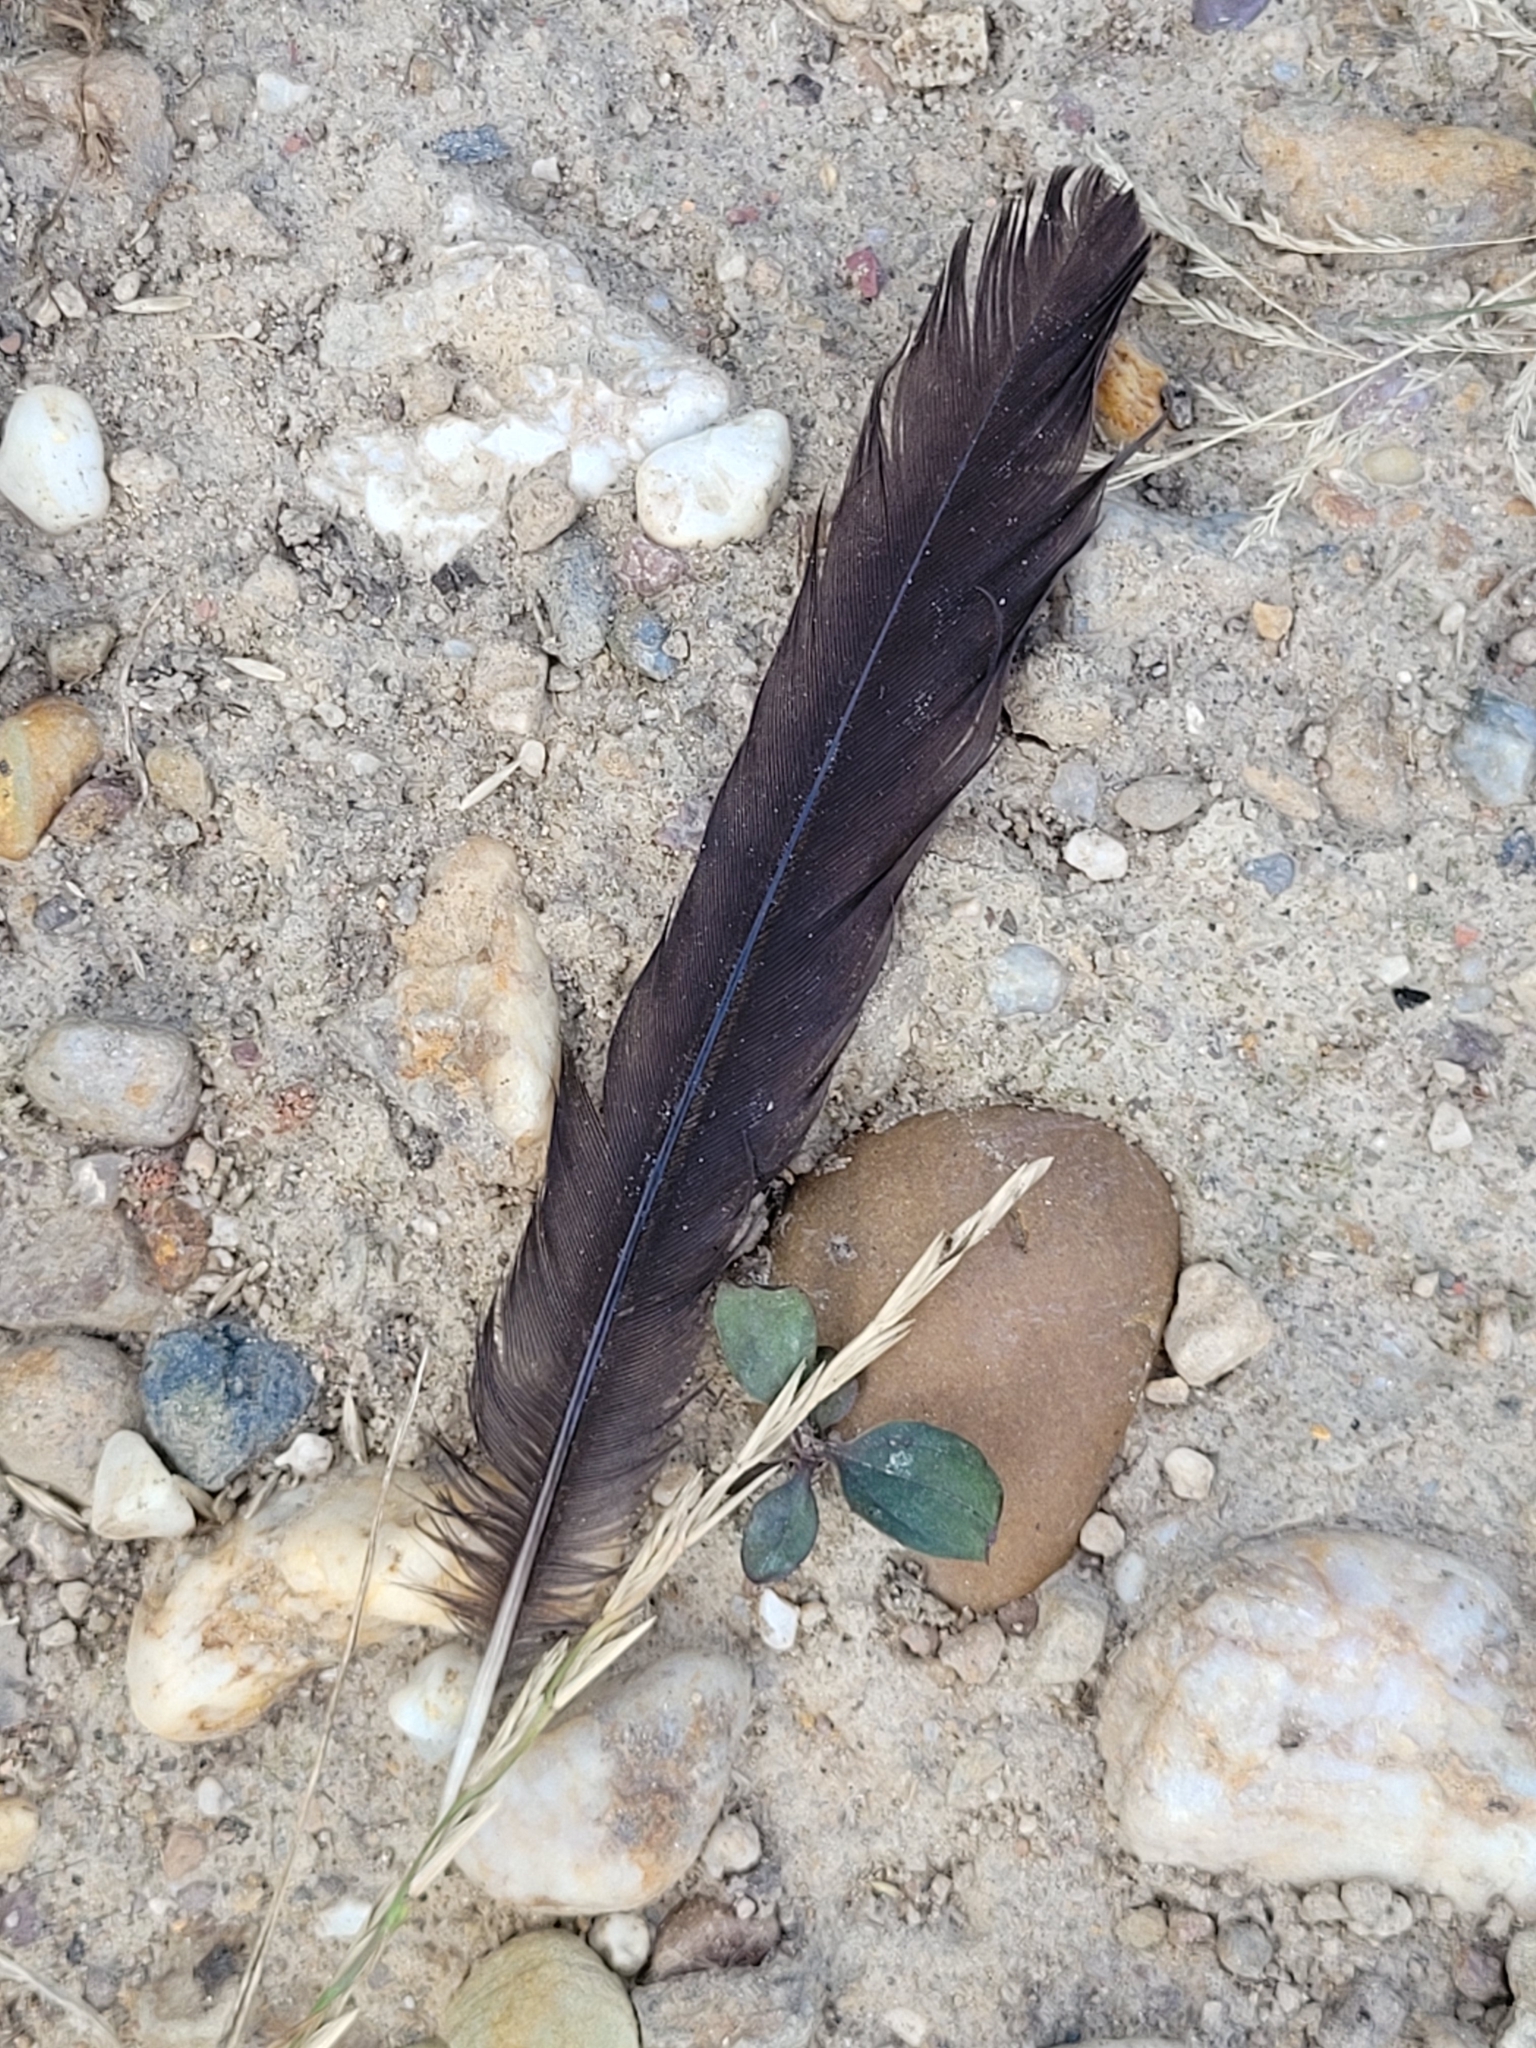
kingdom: Animalia
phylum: Chordata
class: Aves
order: Passeriformes
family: Turdidae
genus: Turdus
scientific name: Turdus merula
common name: Common blackbird
